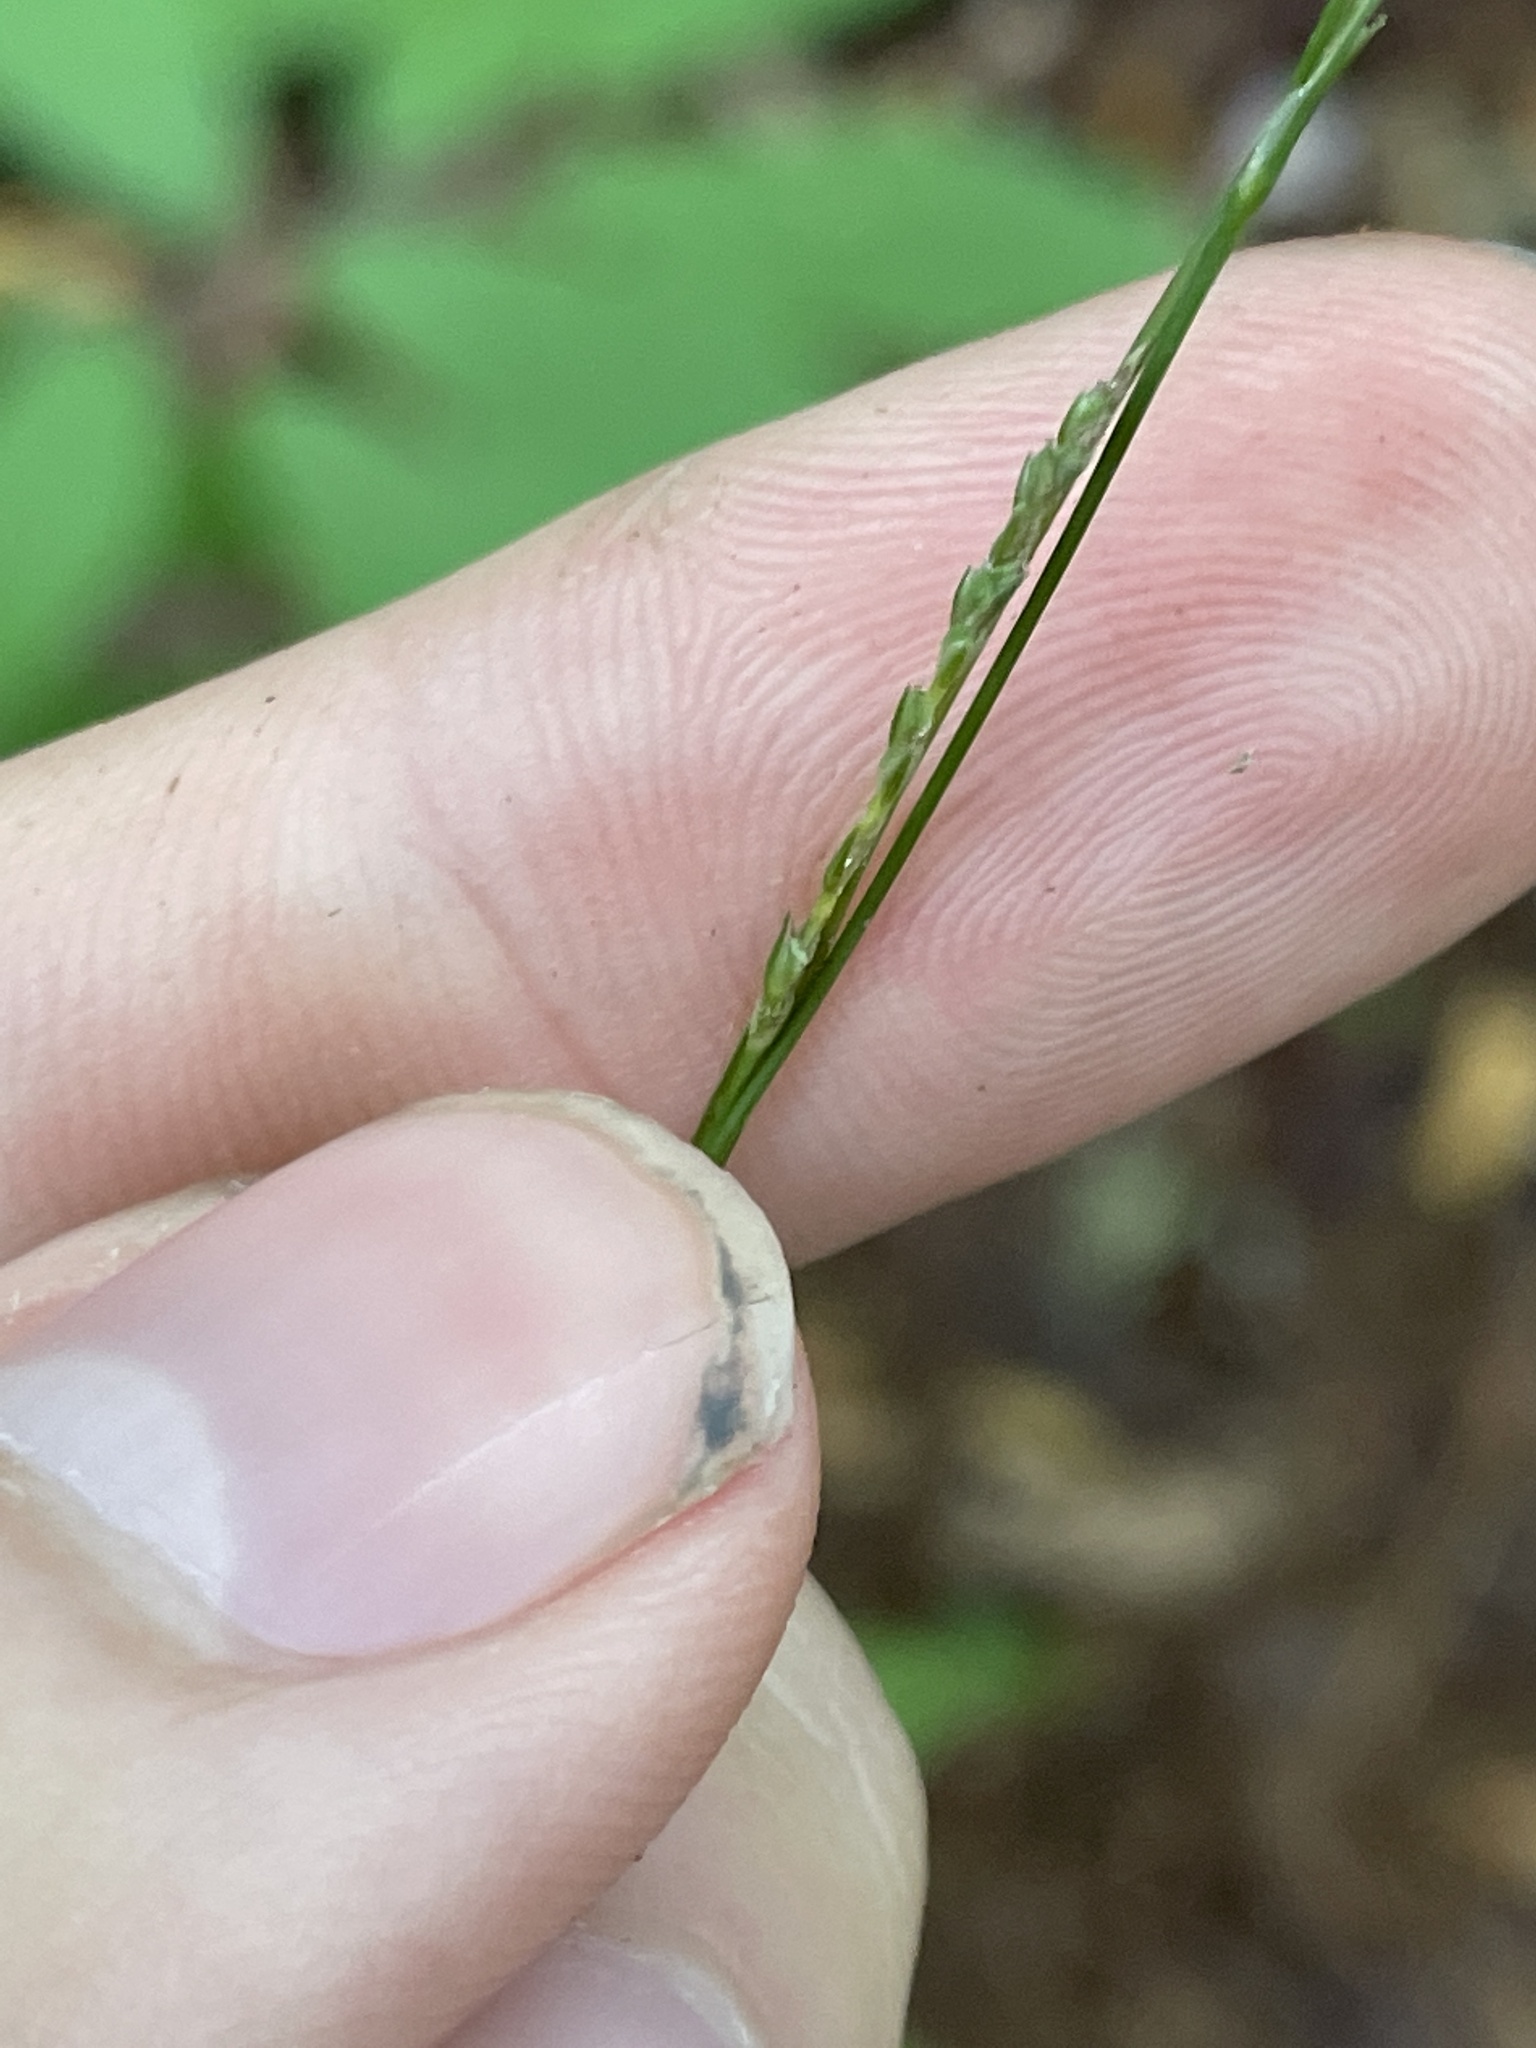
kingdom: Plantae
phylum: Tracheophyta
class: Liliopsida
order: Poales
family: Cyperaceae
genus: Carex
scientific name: Carex virescens
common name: Ribbed sedge
